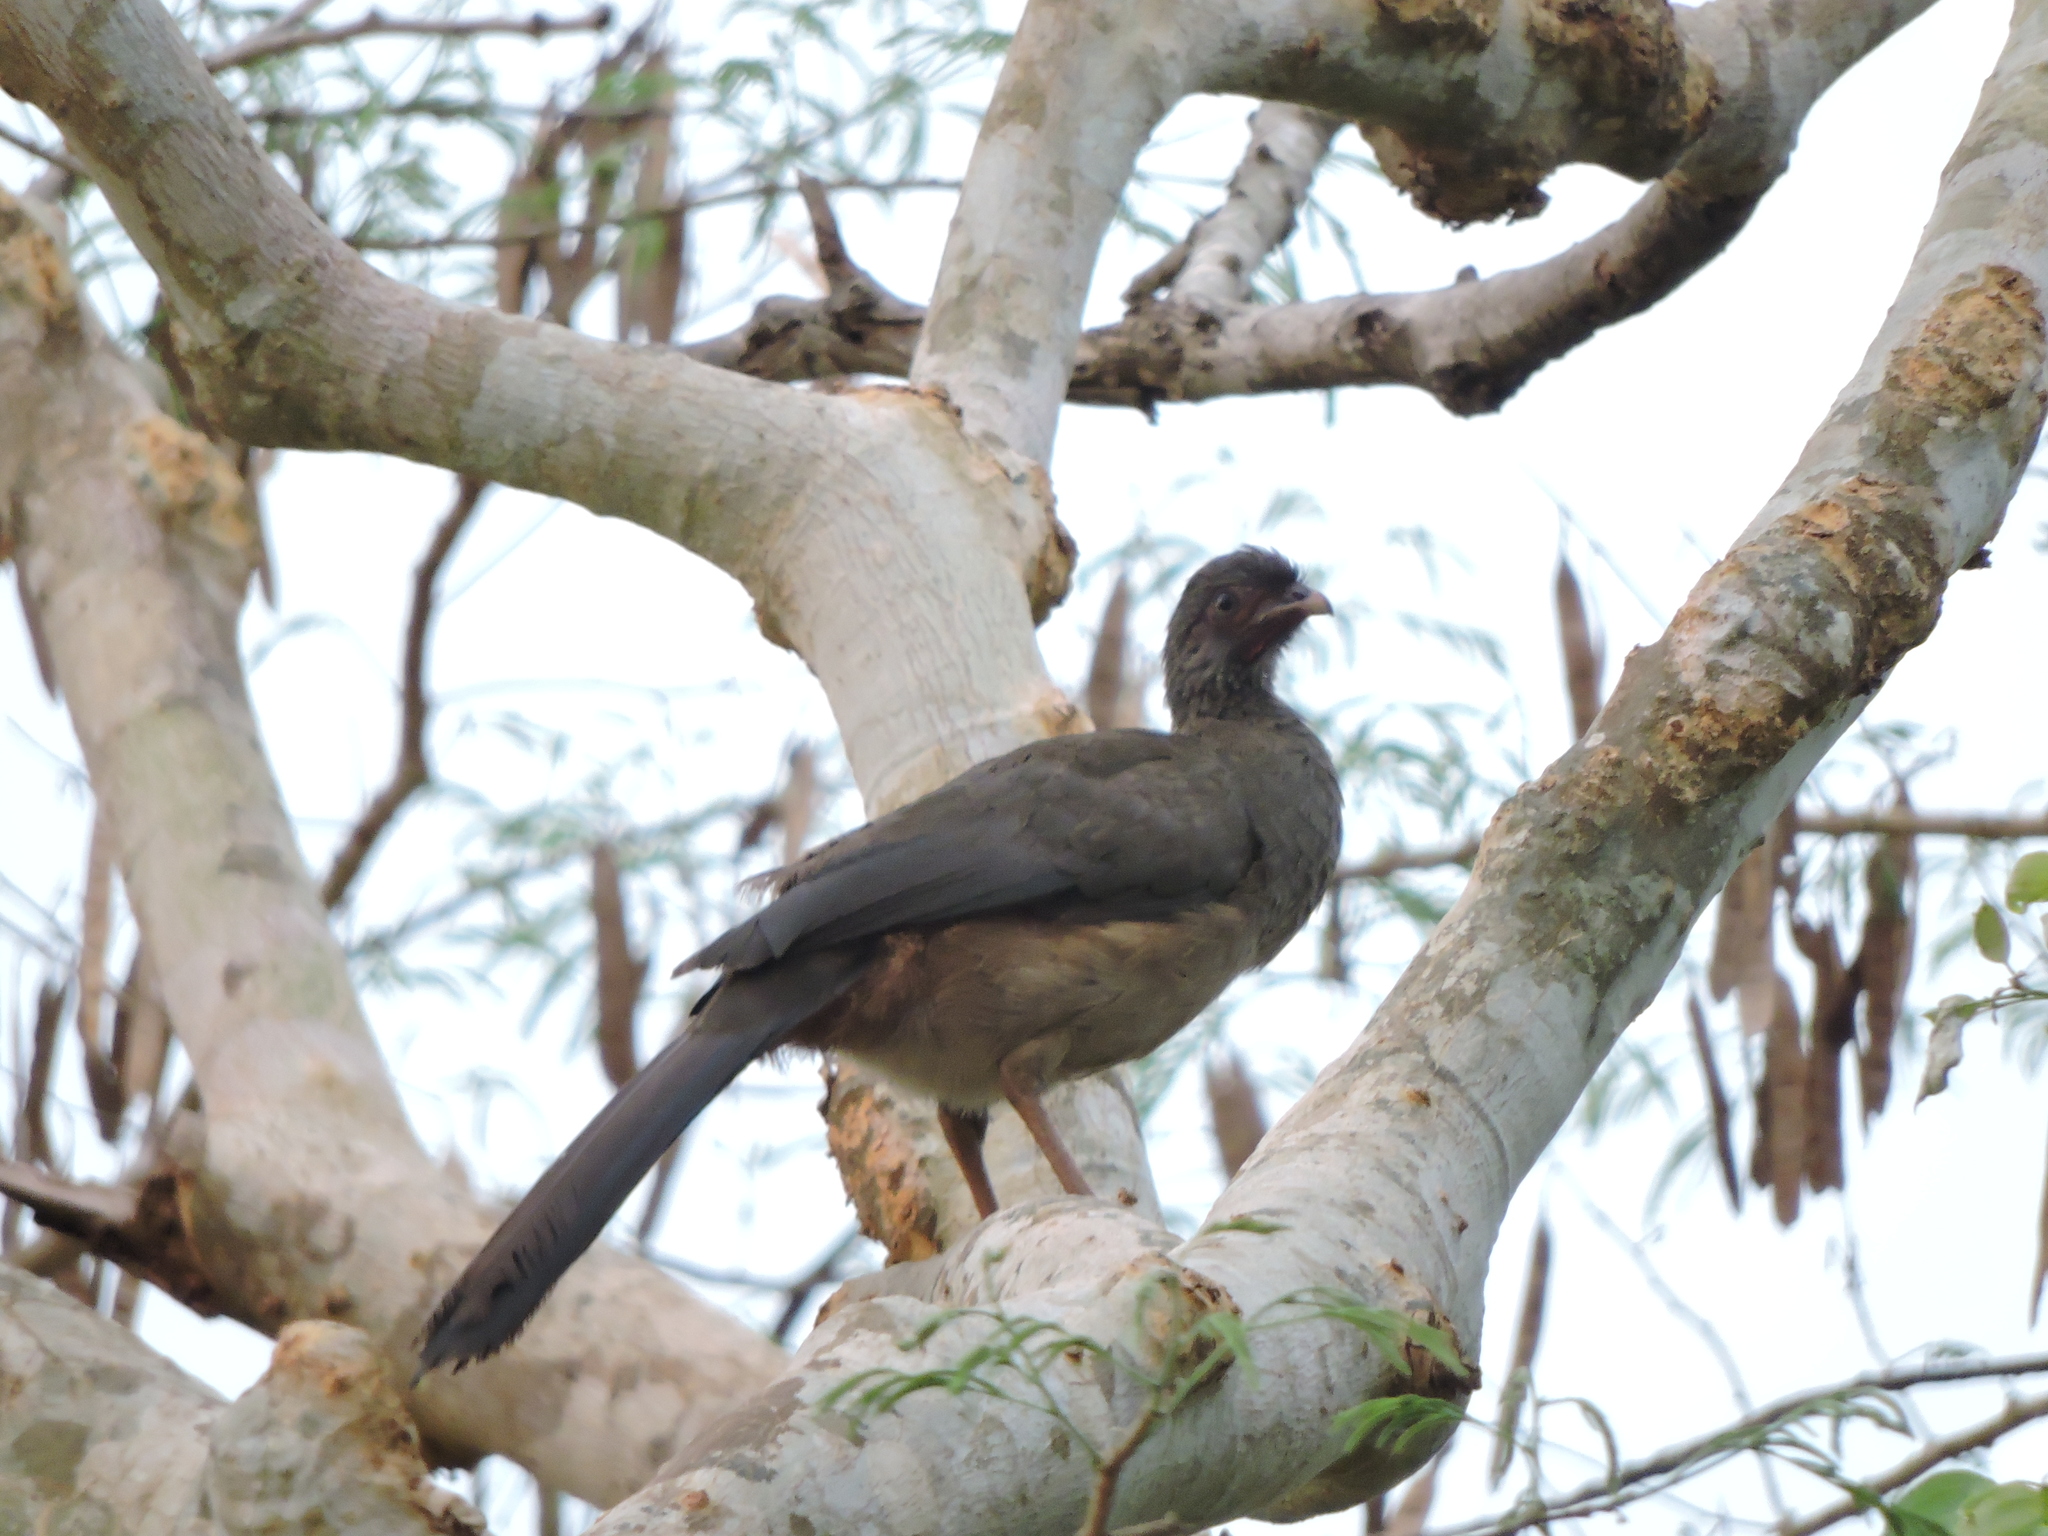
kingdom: Animalia
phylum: Chordata
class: Aves
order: Galliformes
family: Cracidae
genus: Ortalis
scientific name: Ortalis canicollis
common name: Chaco chachalaca
